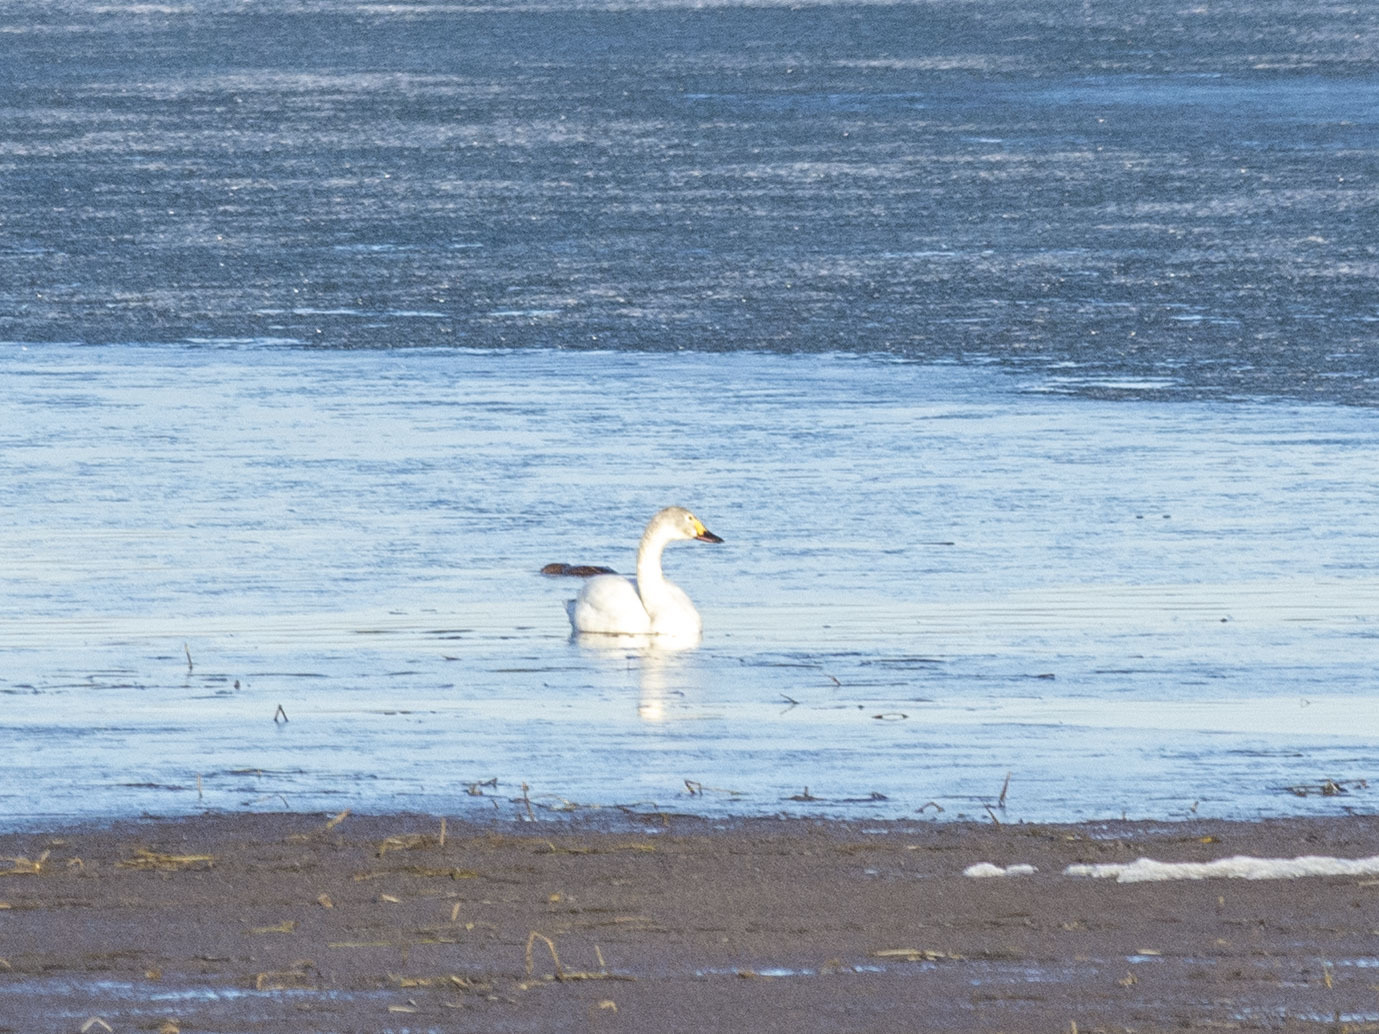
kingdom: Animalia
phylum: Chordata
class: Aves
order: Anseriformes
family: Anatidae
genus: Cygnus
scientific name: Cygnus columbianus
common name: Tundra swan
